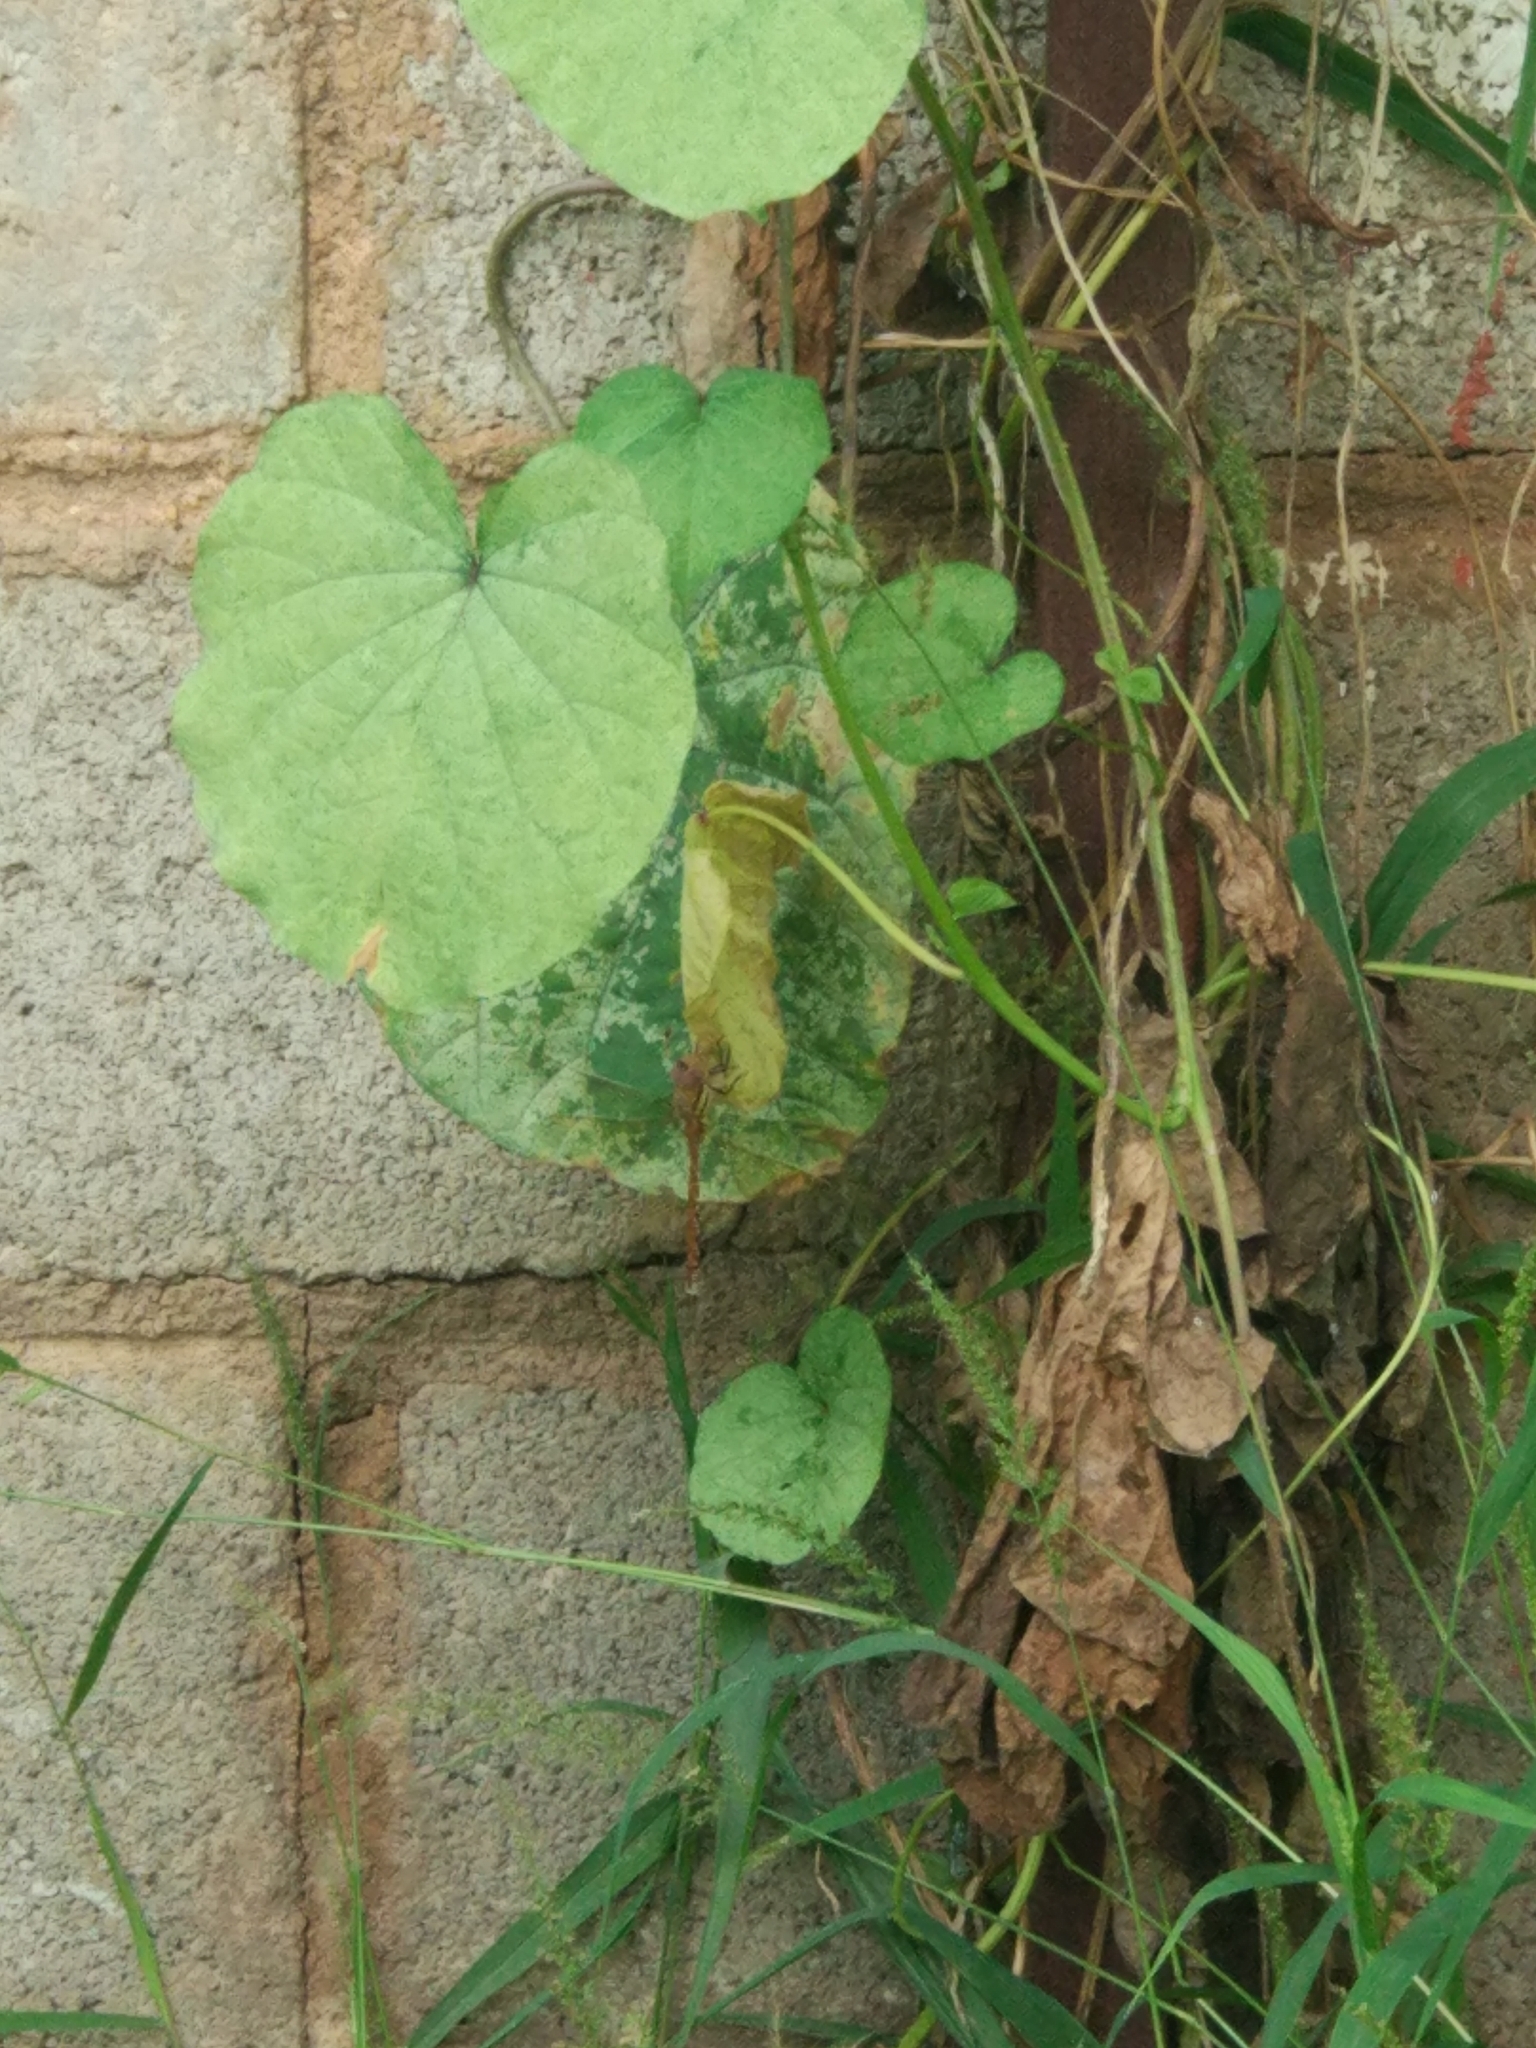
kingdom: Animalia
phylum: Arthropoda
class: Insecta
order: Odonata
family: Aeshnidae
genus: Anaciaeschna
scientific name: Anaciaeschna jaspidea
